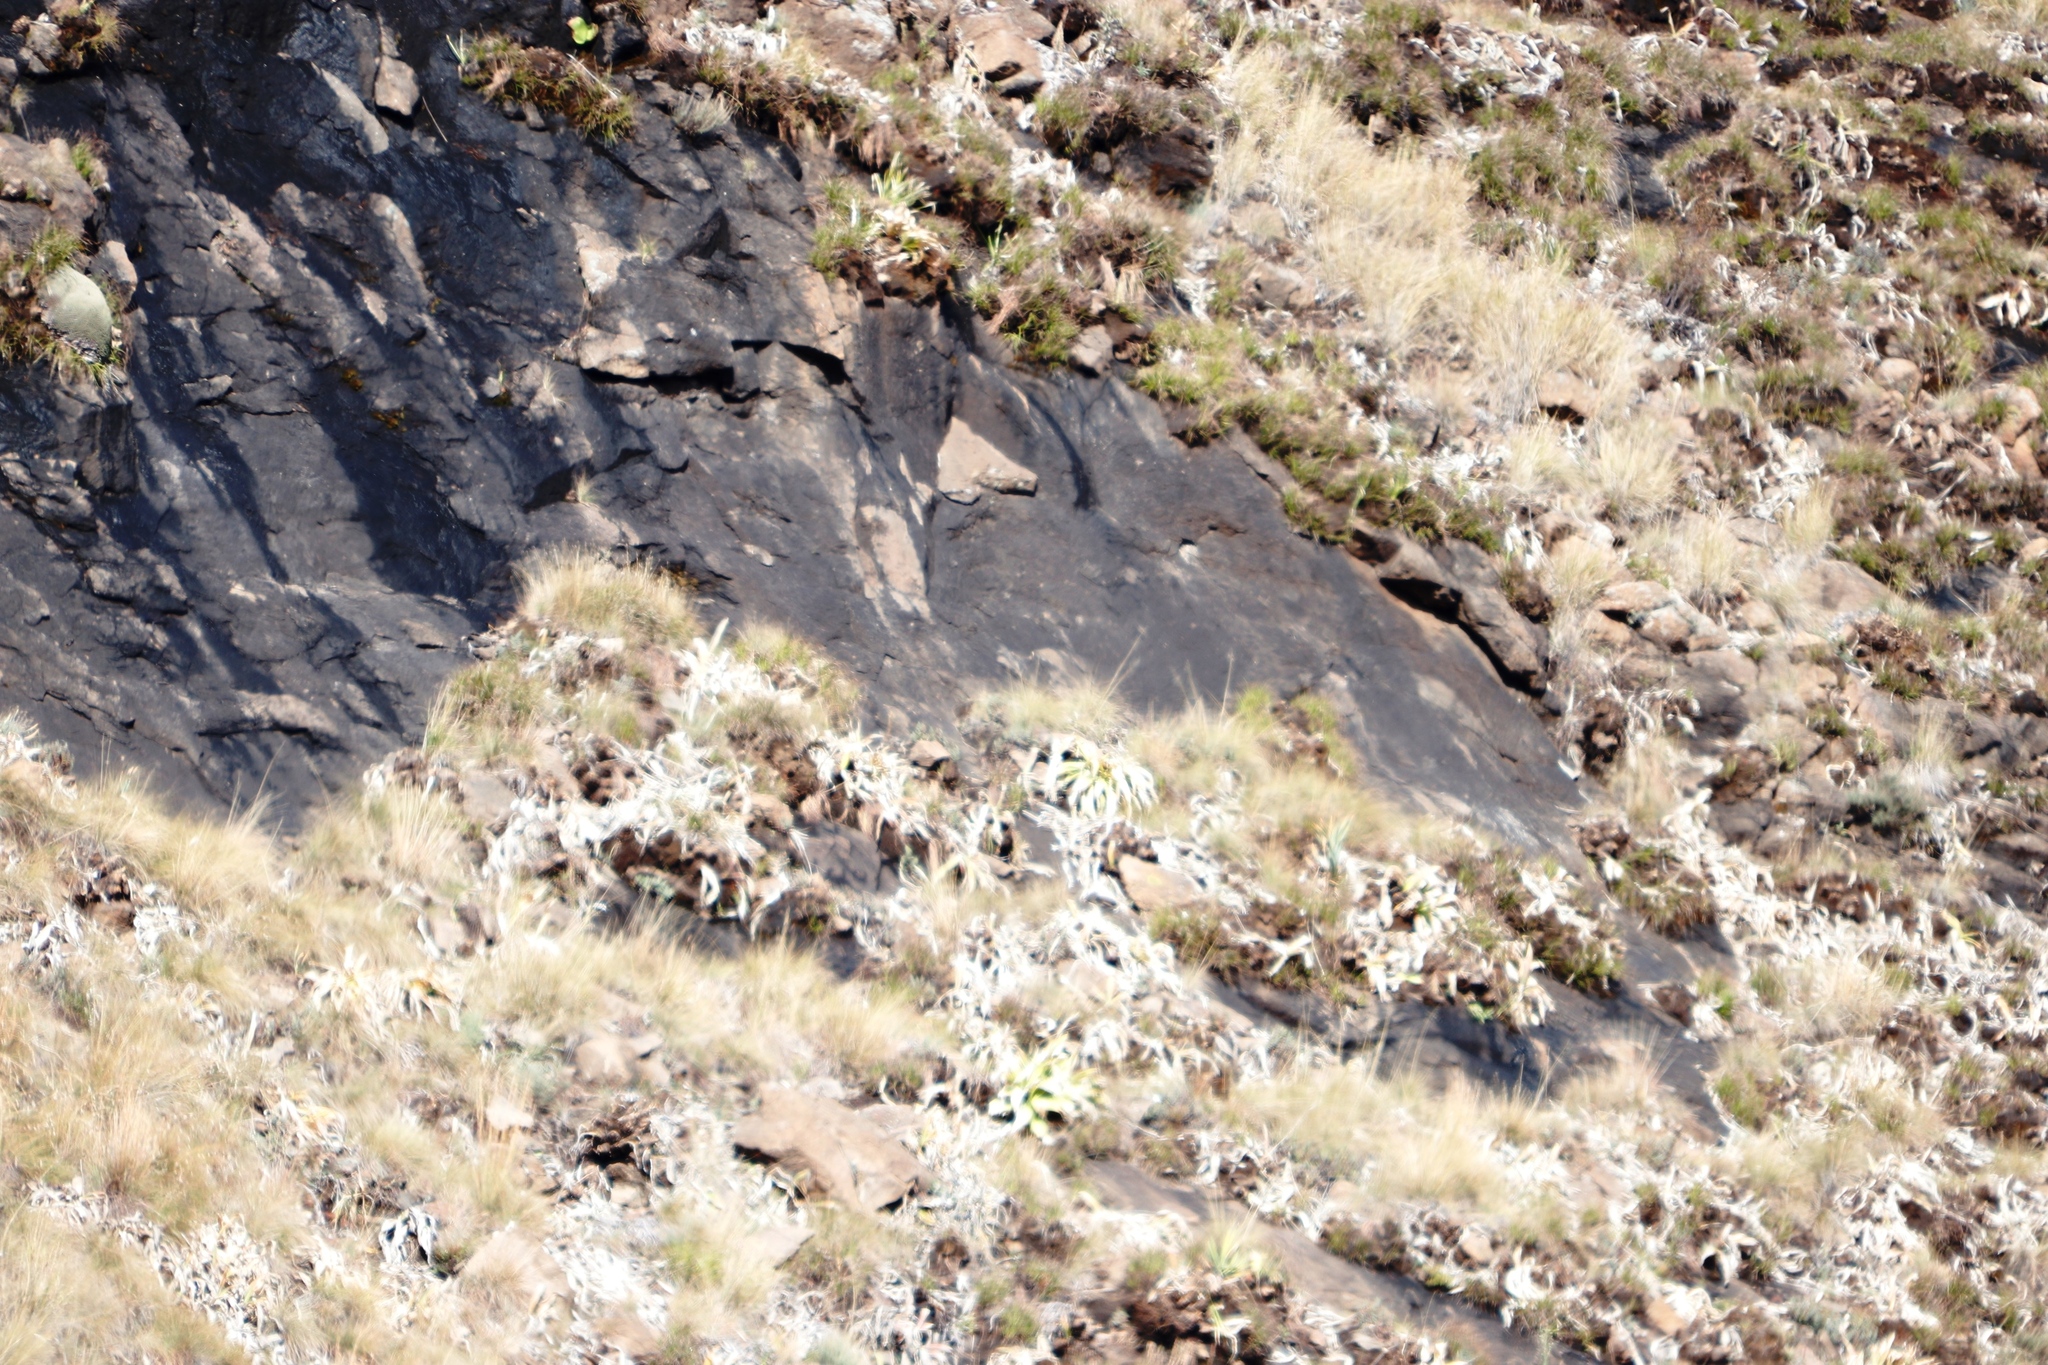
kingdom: Plantae
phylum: Tracheophyta
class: Liliopsida
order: Asparagales
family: Asparagaceae
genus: Merwilla
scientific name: Merwilla plumbea
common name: Blue-squill
